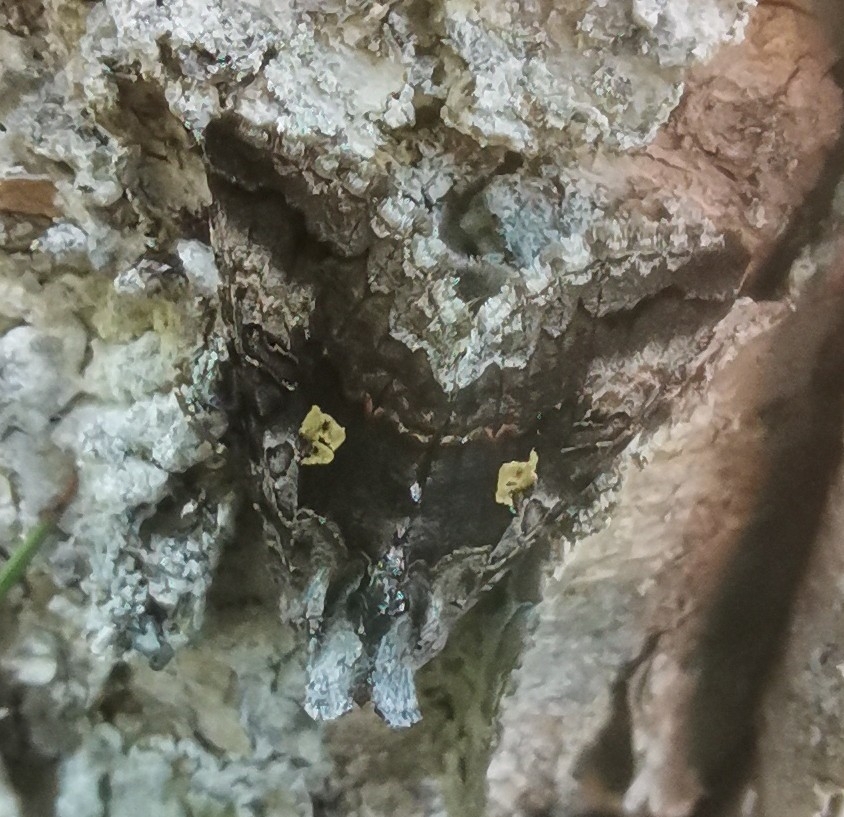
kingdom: Animalia
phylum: Arthropoda
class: Insecta
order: Lepidoptera
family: Noctuidae
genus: Syngrapha
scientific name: Syngrapha interrogationis
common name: Scarce silver y
